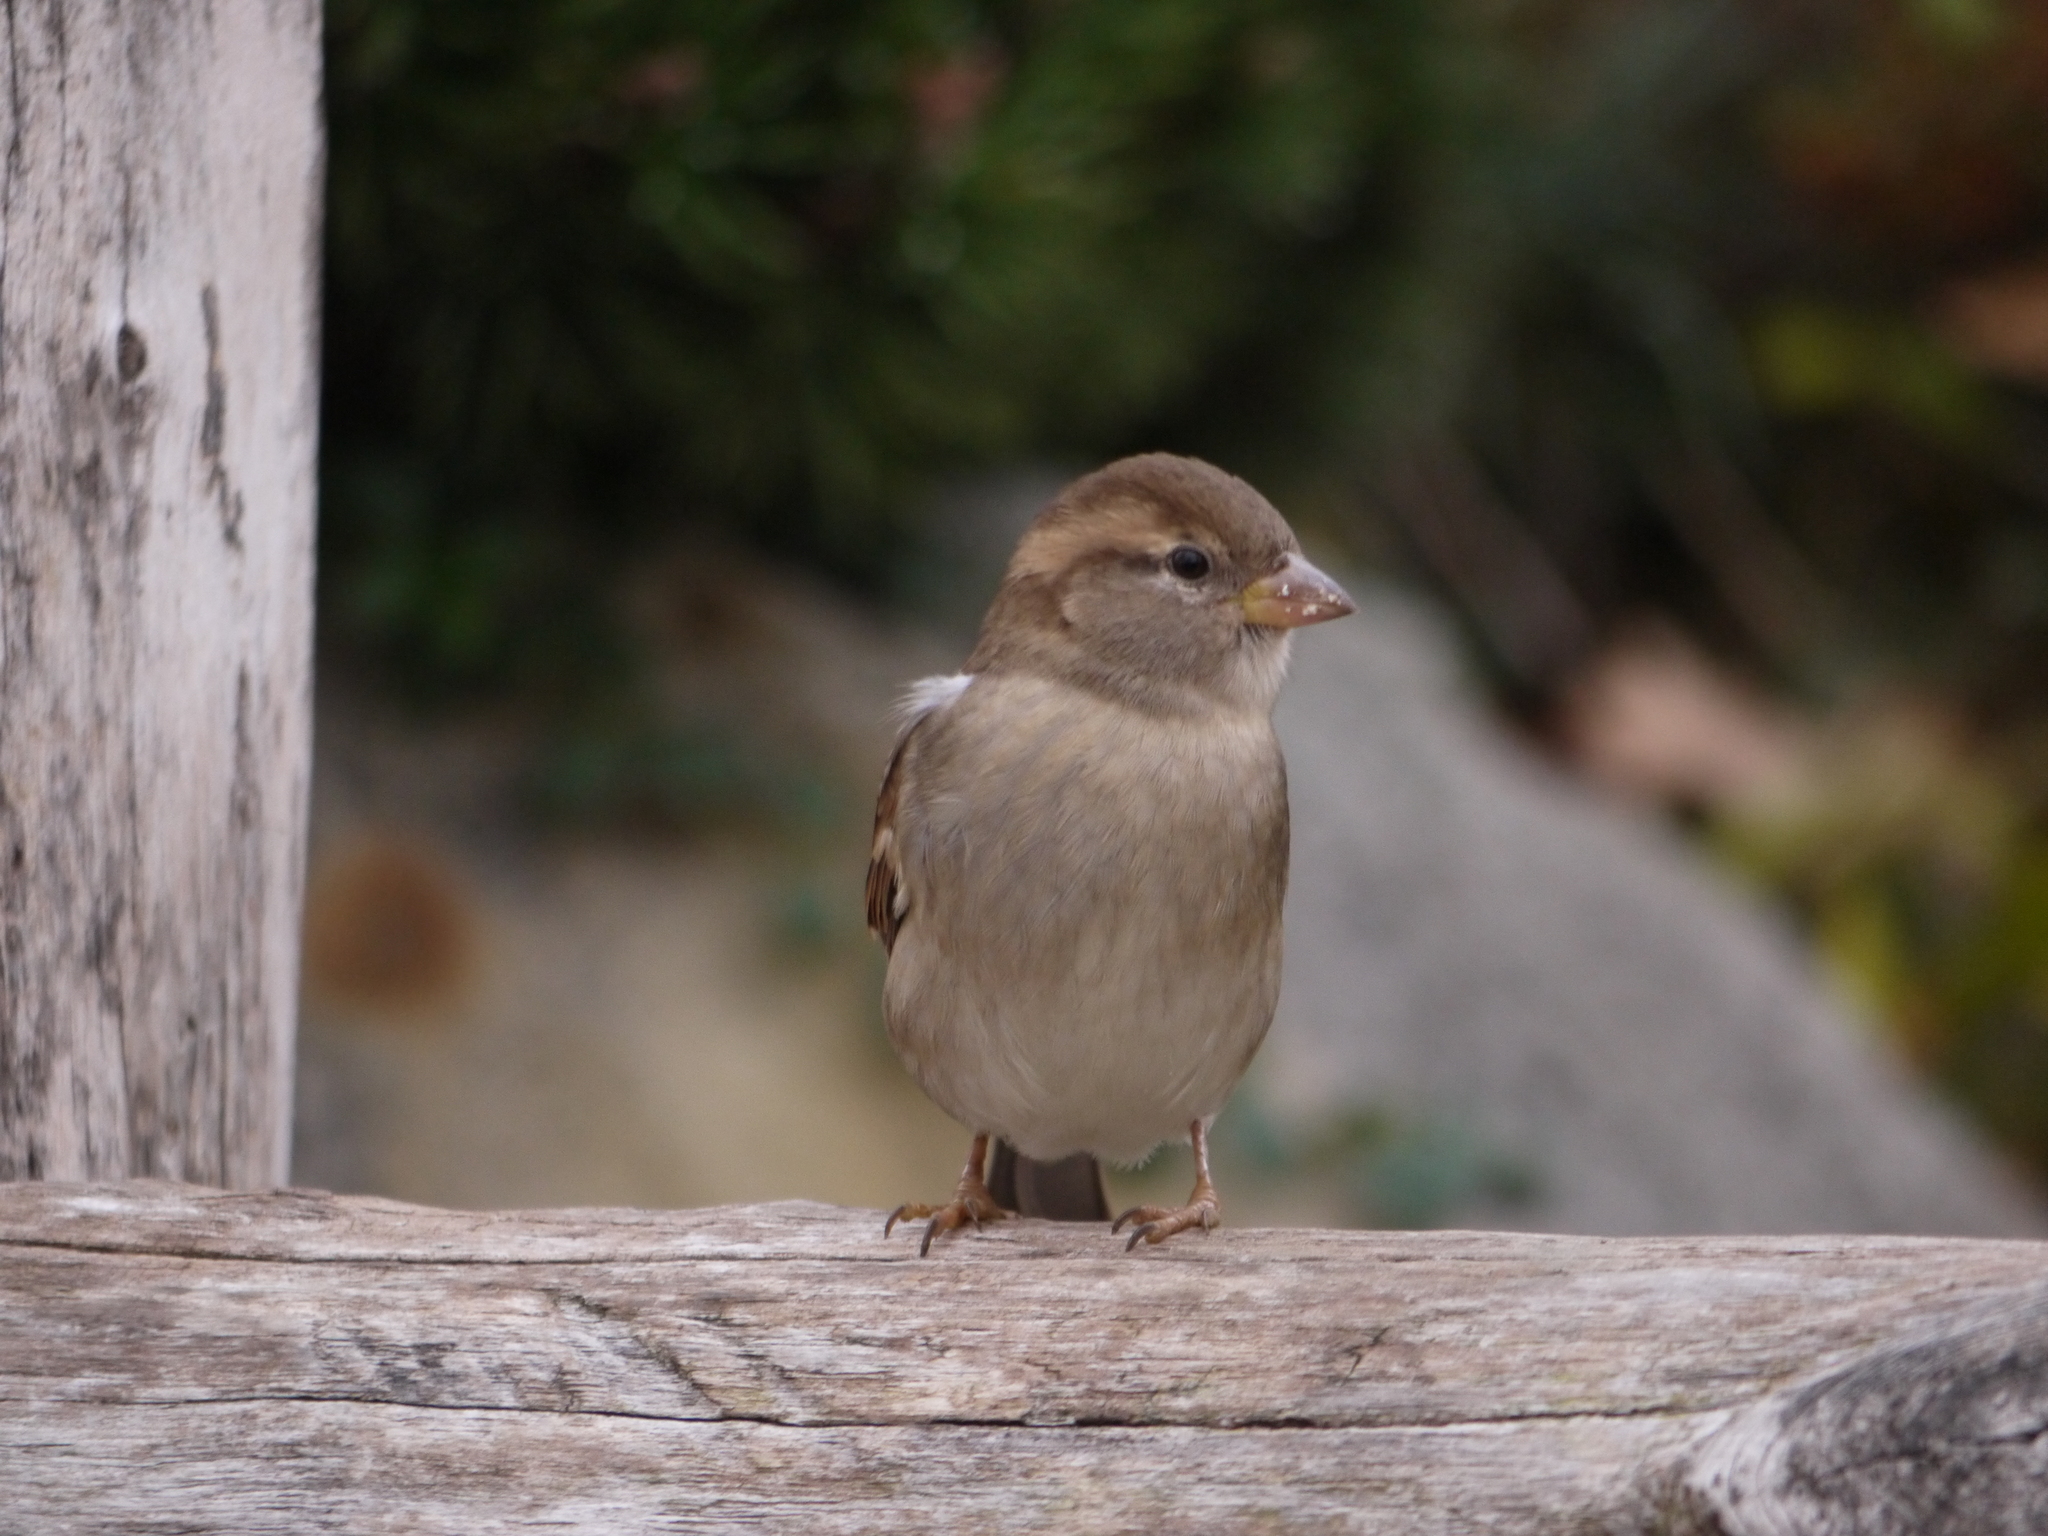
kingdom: Animalia
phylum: Chordata
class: Aves
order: Passeriformes
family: Passeridae
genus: Passer
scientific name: Passer domesticus
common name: House sparrow
